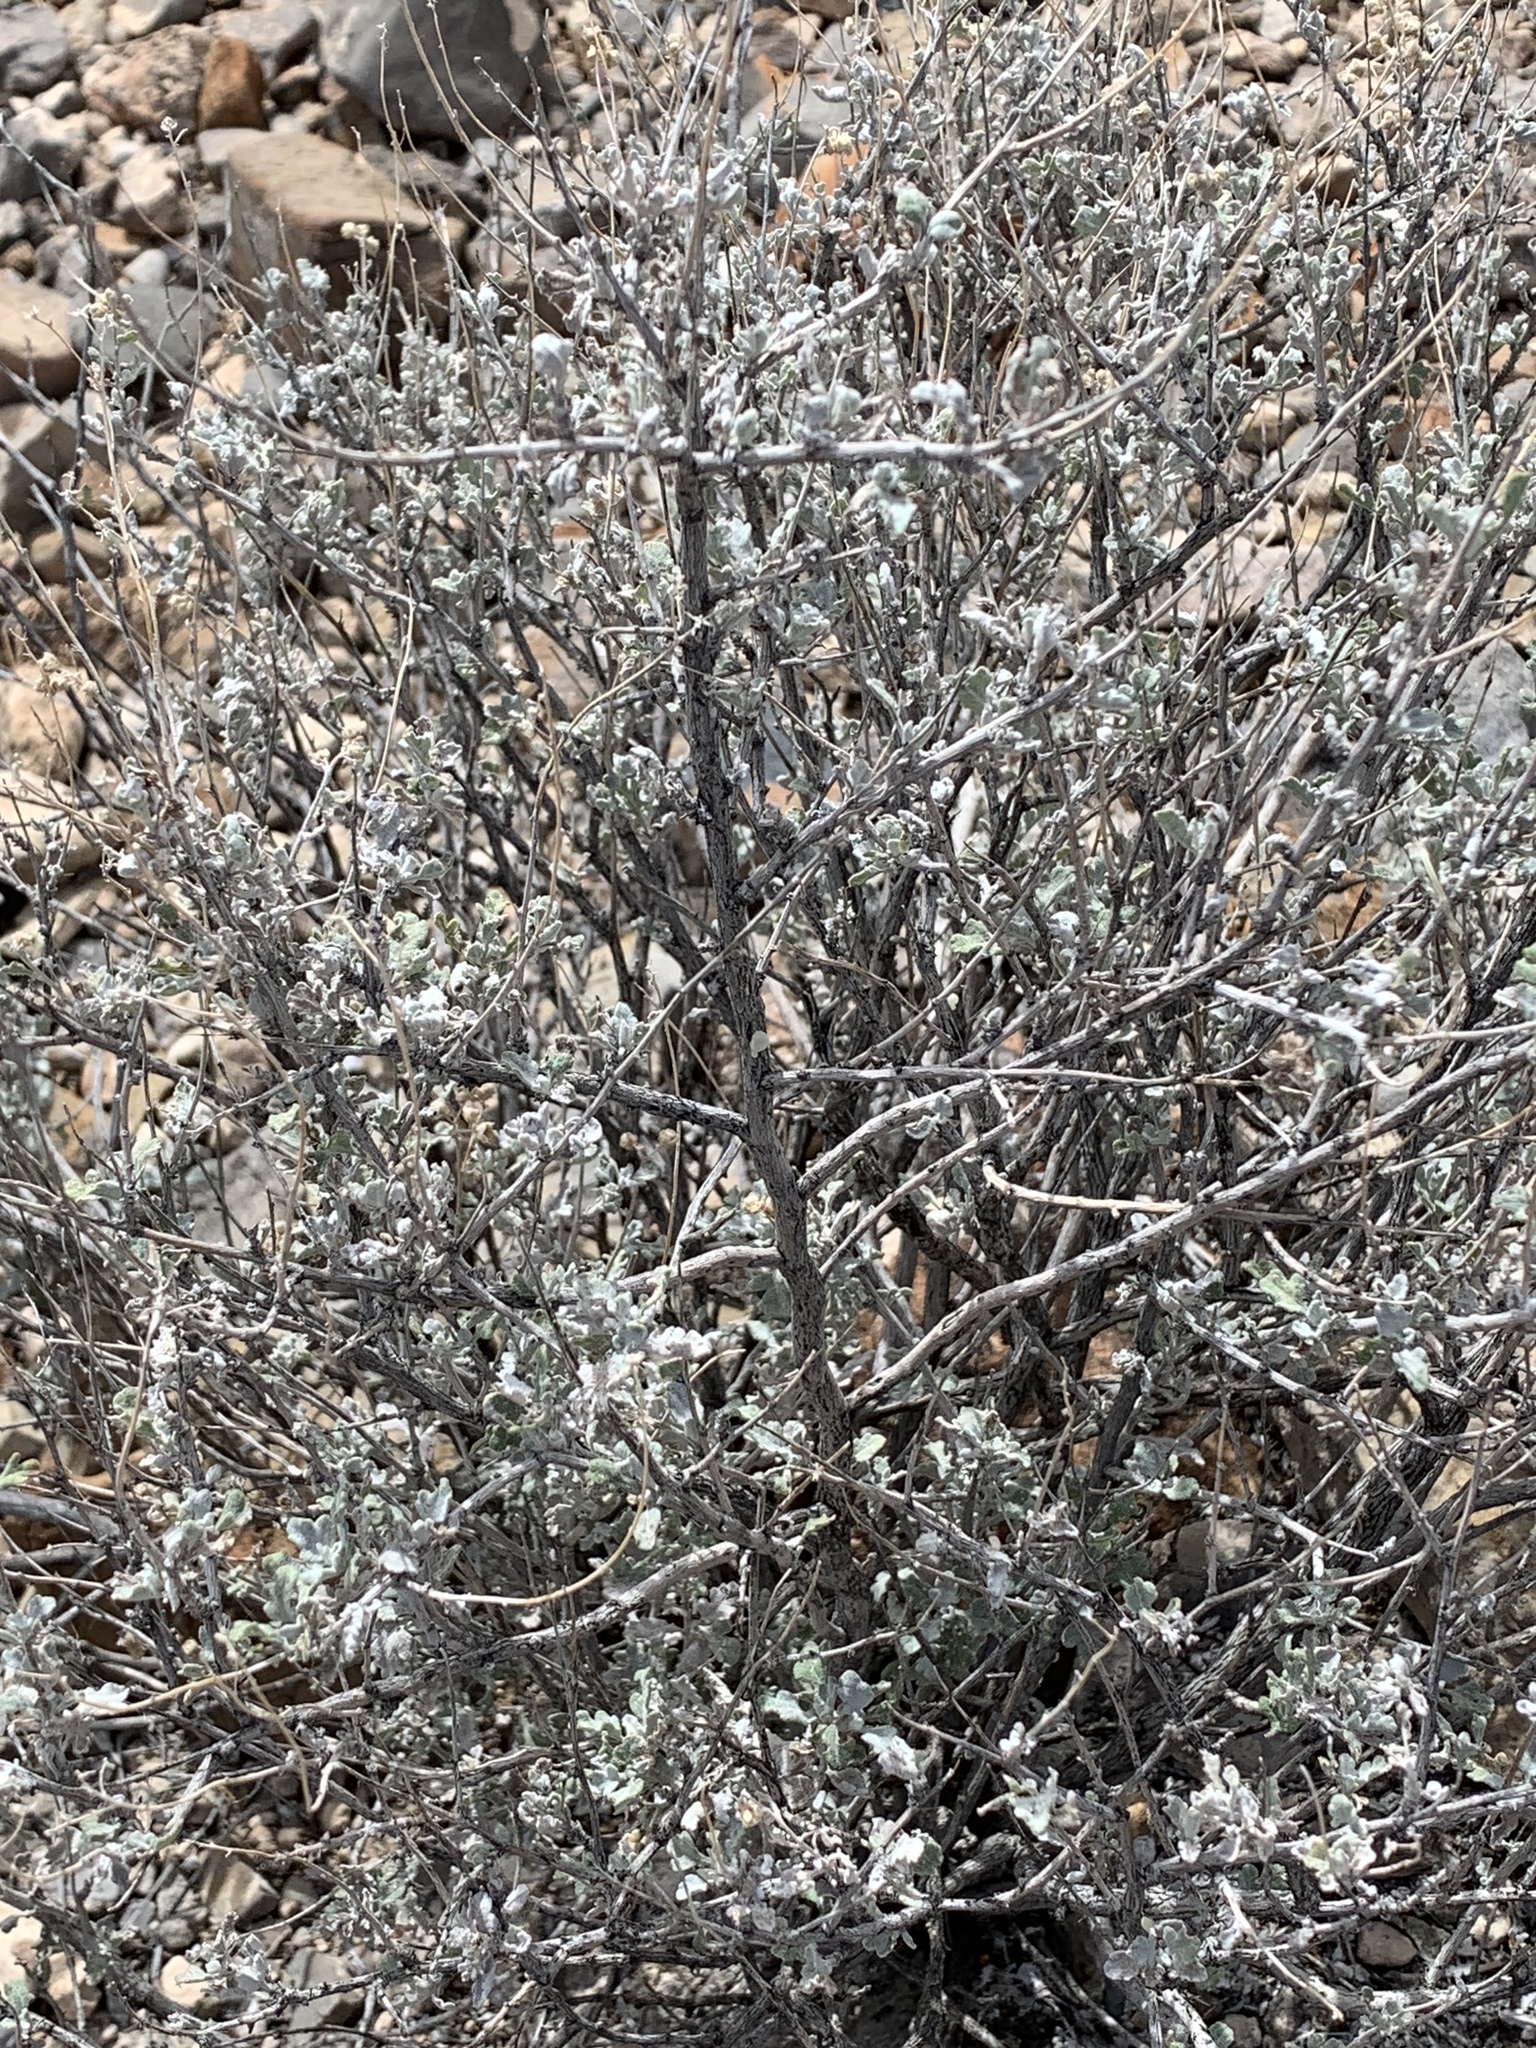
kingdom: Plantae
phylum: Tracheophyta
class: Magnoliopsida
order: Asterales
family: Asteraceae
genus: Parthenium
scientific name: Parthenium incanum
